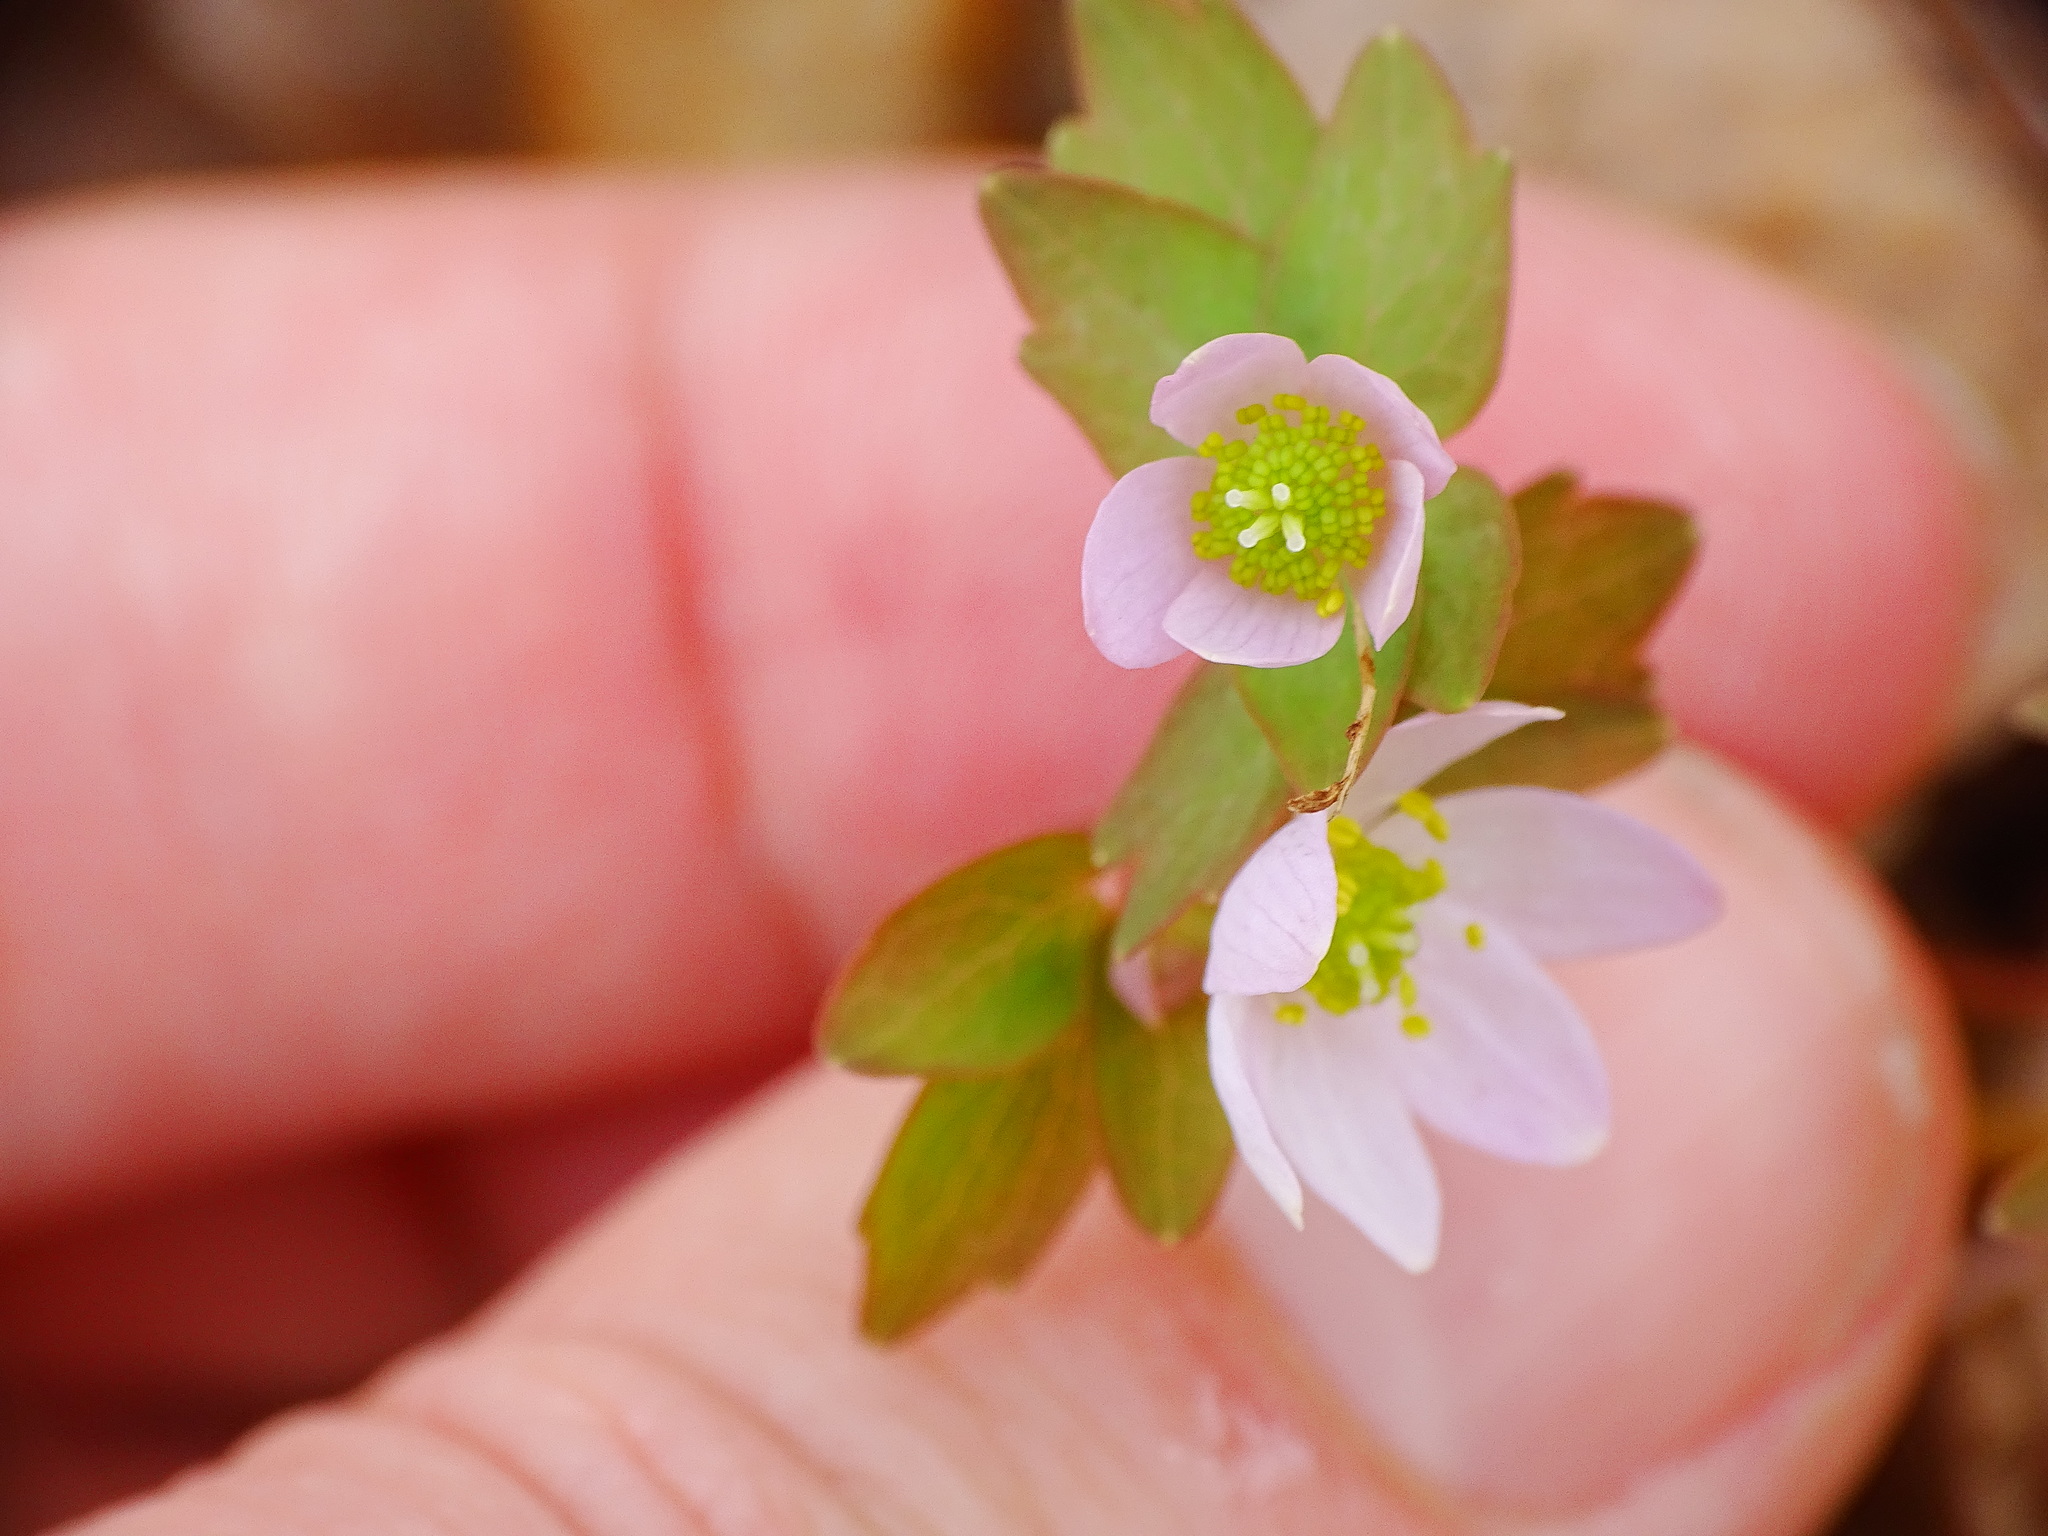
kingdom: Plantae
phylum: Tracheophyta
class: Magnoliopsida
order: Ranunculales
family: Ranunculaceae
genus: Thalictrum
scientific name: Thalictrum thalictroides
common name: Rue-anemone
